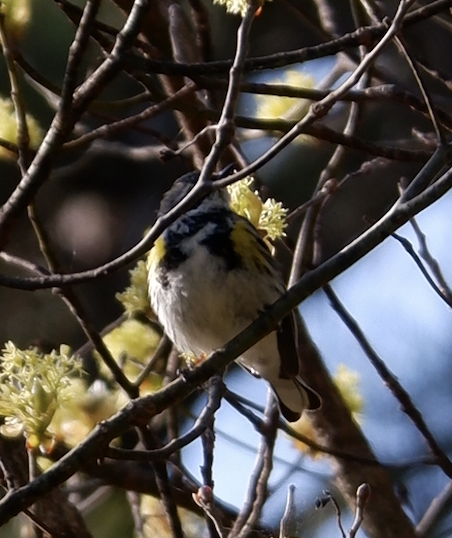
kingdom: Animalia
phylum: Chordata
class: Aves
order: Passeriformes
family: Parulidae
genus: Setophaga
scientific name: Setophaga coronata
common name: Myrtle warbler
